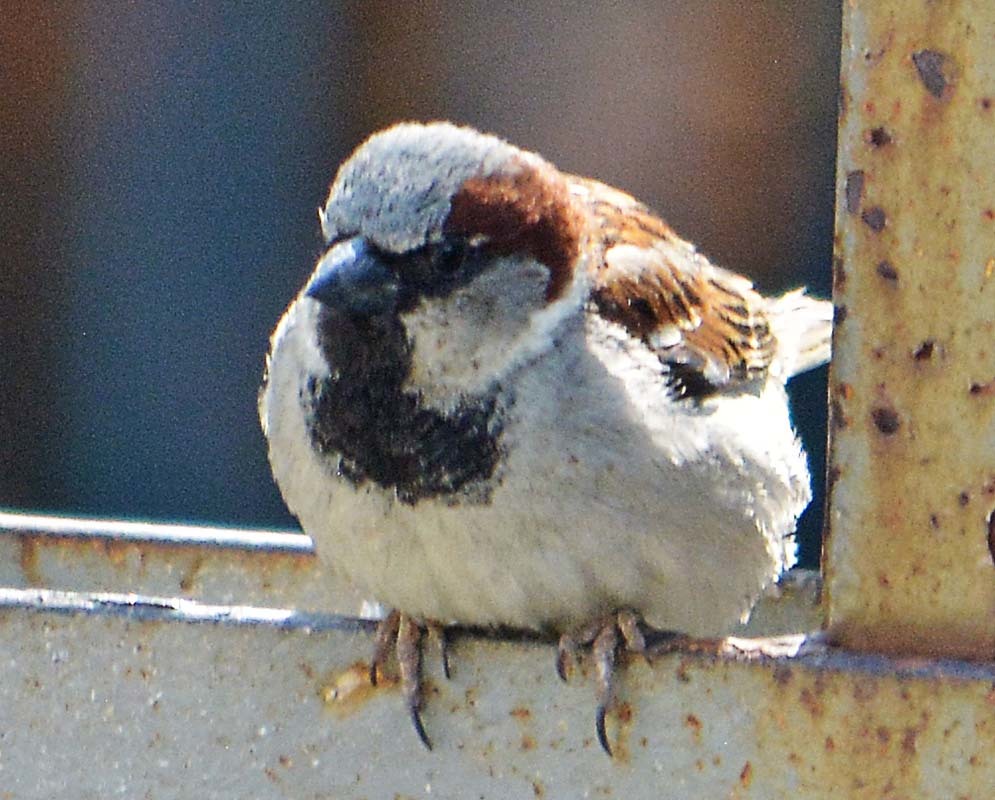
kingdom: Animalia
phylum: Chordata
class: Aves
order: Passeriformes
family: Passeridae
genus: Passer
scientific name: Passer domesticus
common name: House sparrow
